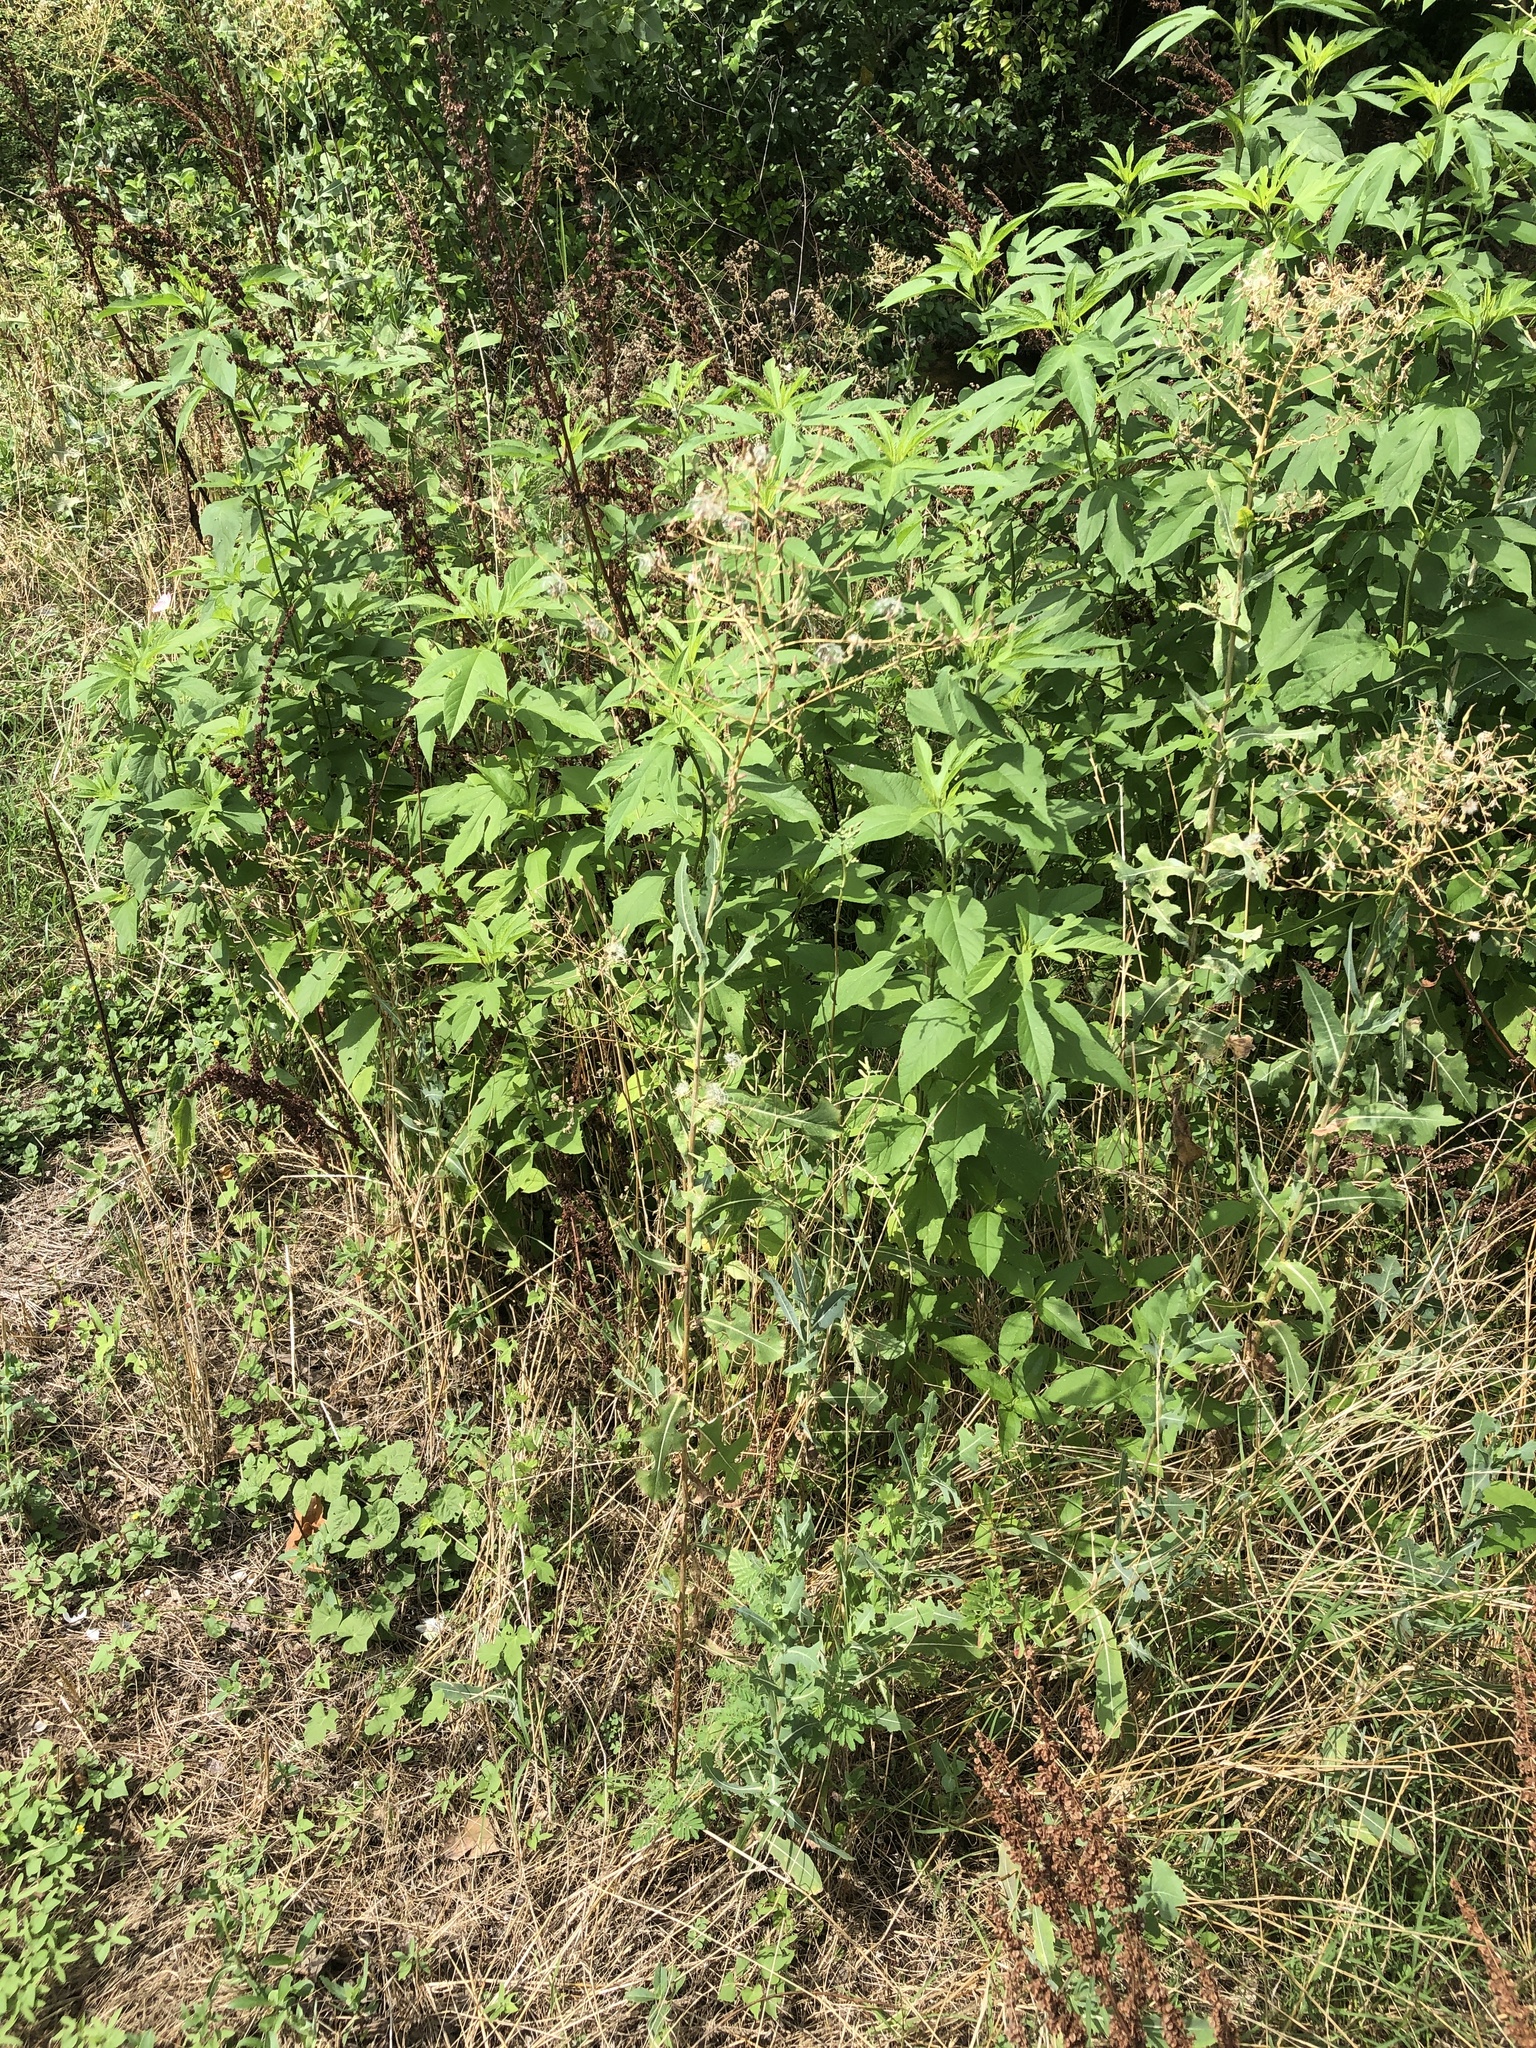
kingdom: Plantae
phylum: Tracheophyta
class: Magnoliopsida
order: Asterales
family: Asteraceae
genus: Lactuca
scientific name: Lactuca serriola
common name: Prickly lettuce
